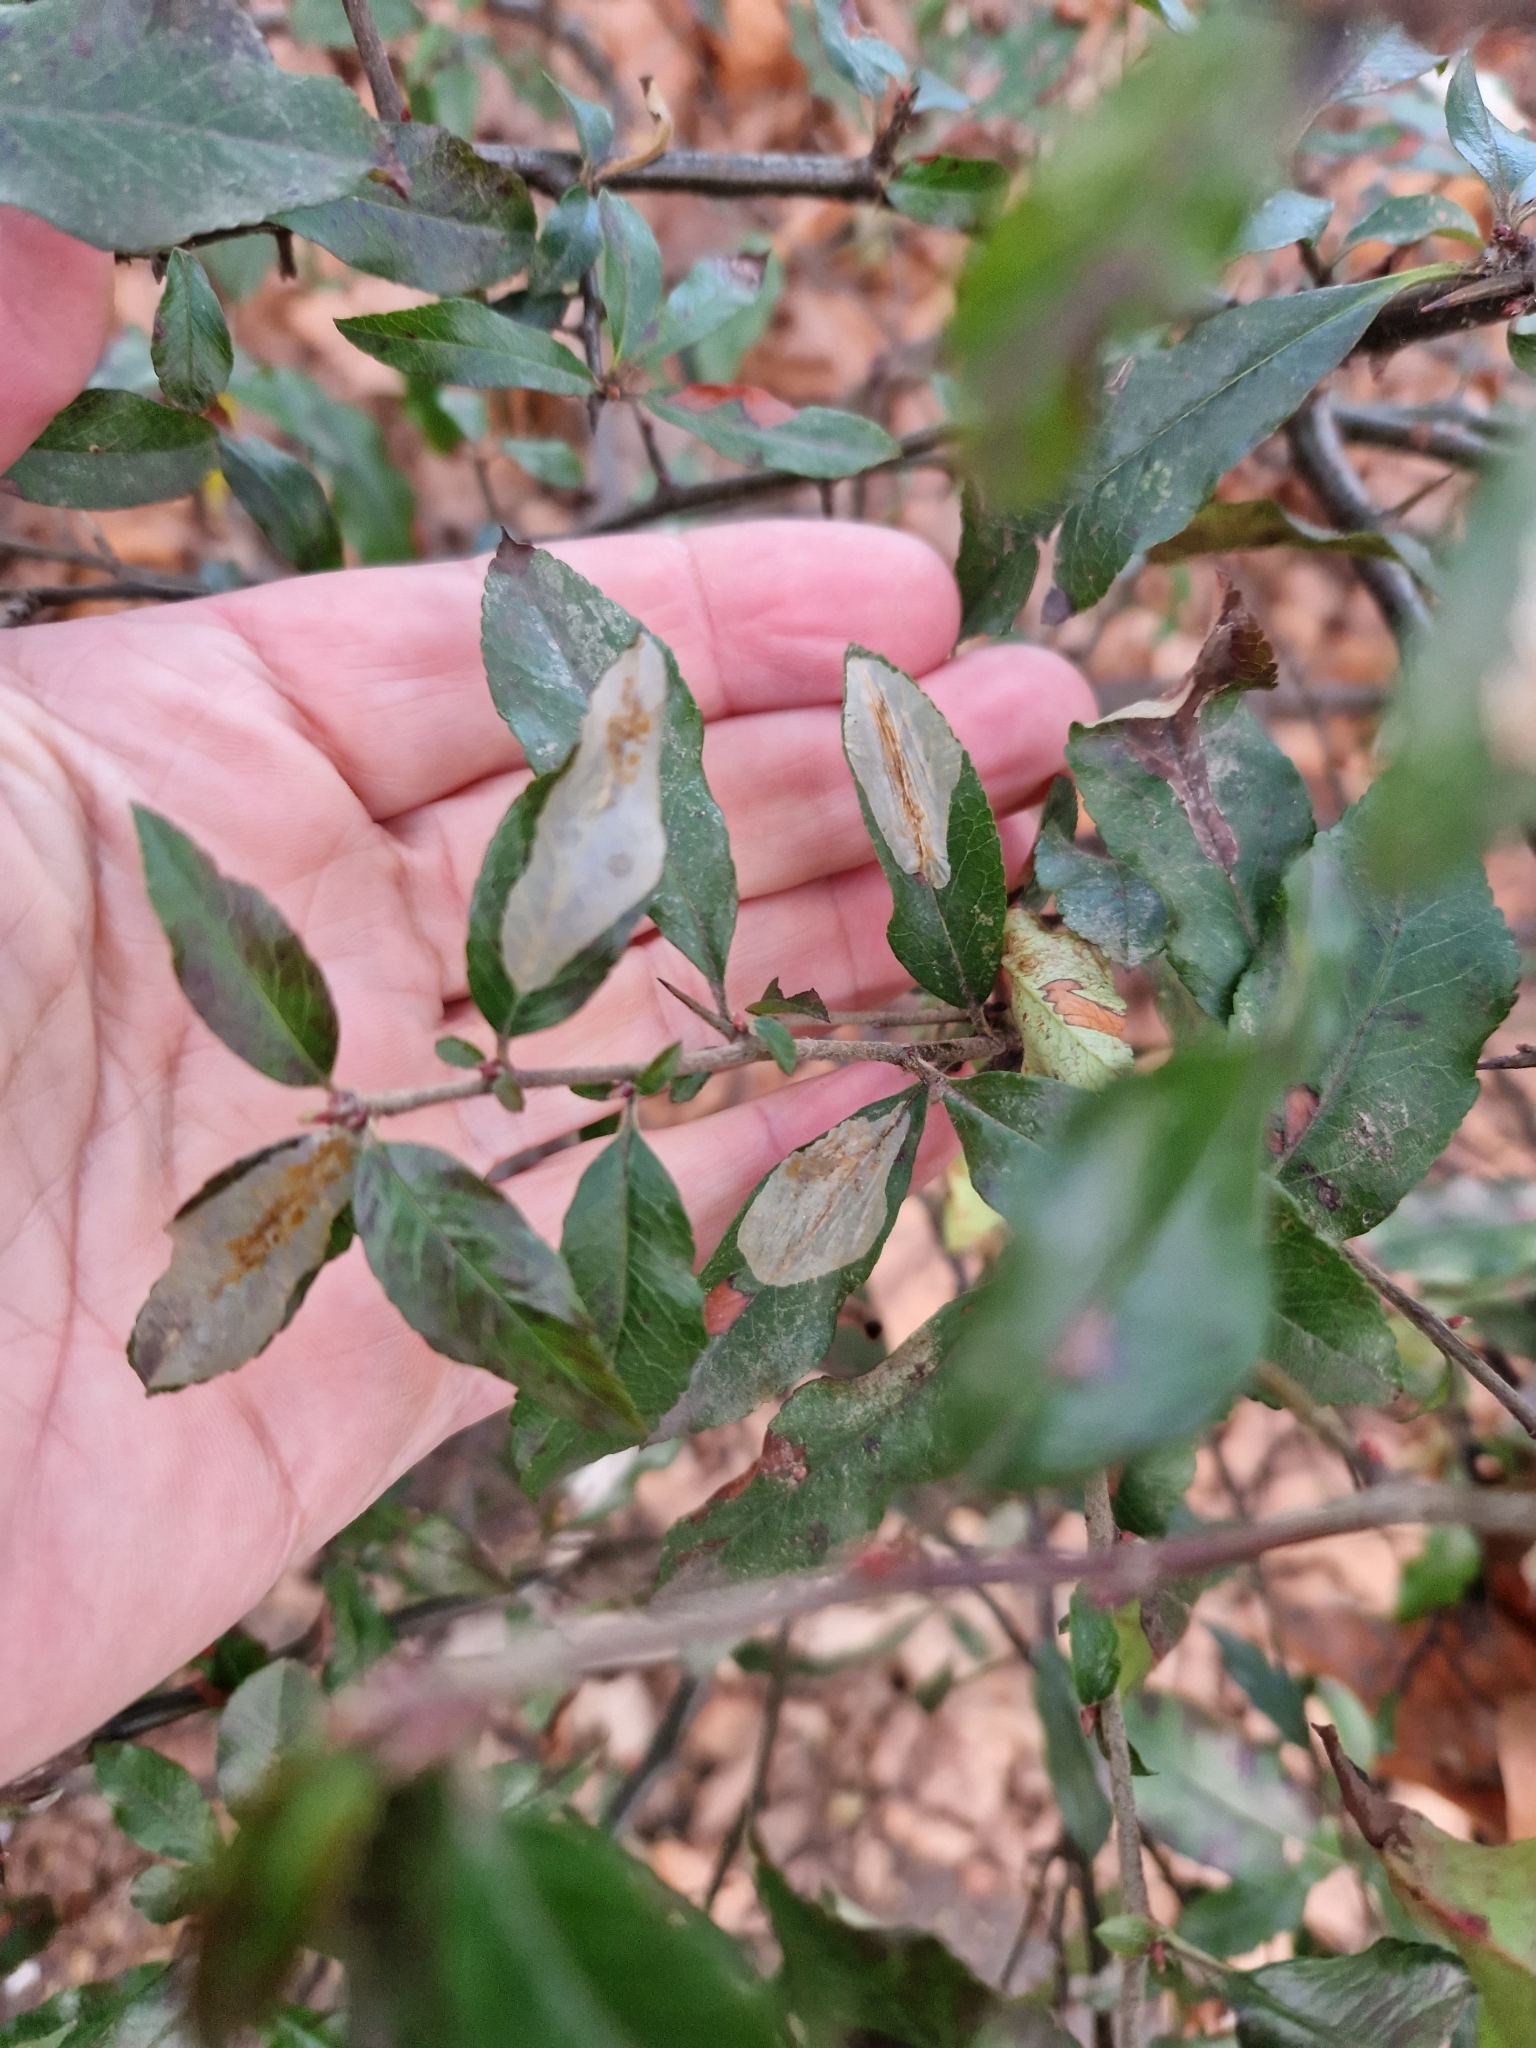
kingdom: Animalia
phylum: Arthropoda
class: Insecta
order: Lepidoptera
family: Gracillariidae
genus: Phyllonorycter
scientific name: Phyllonorycter leucographella
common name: Firethorn leaf-miner
